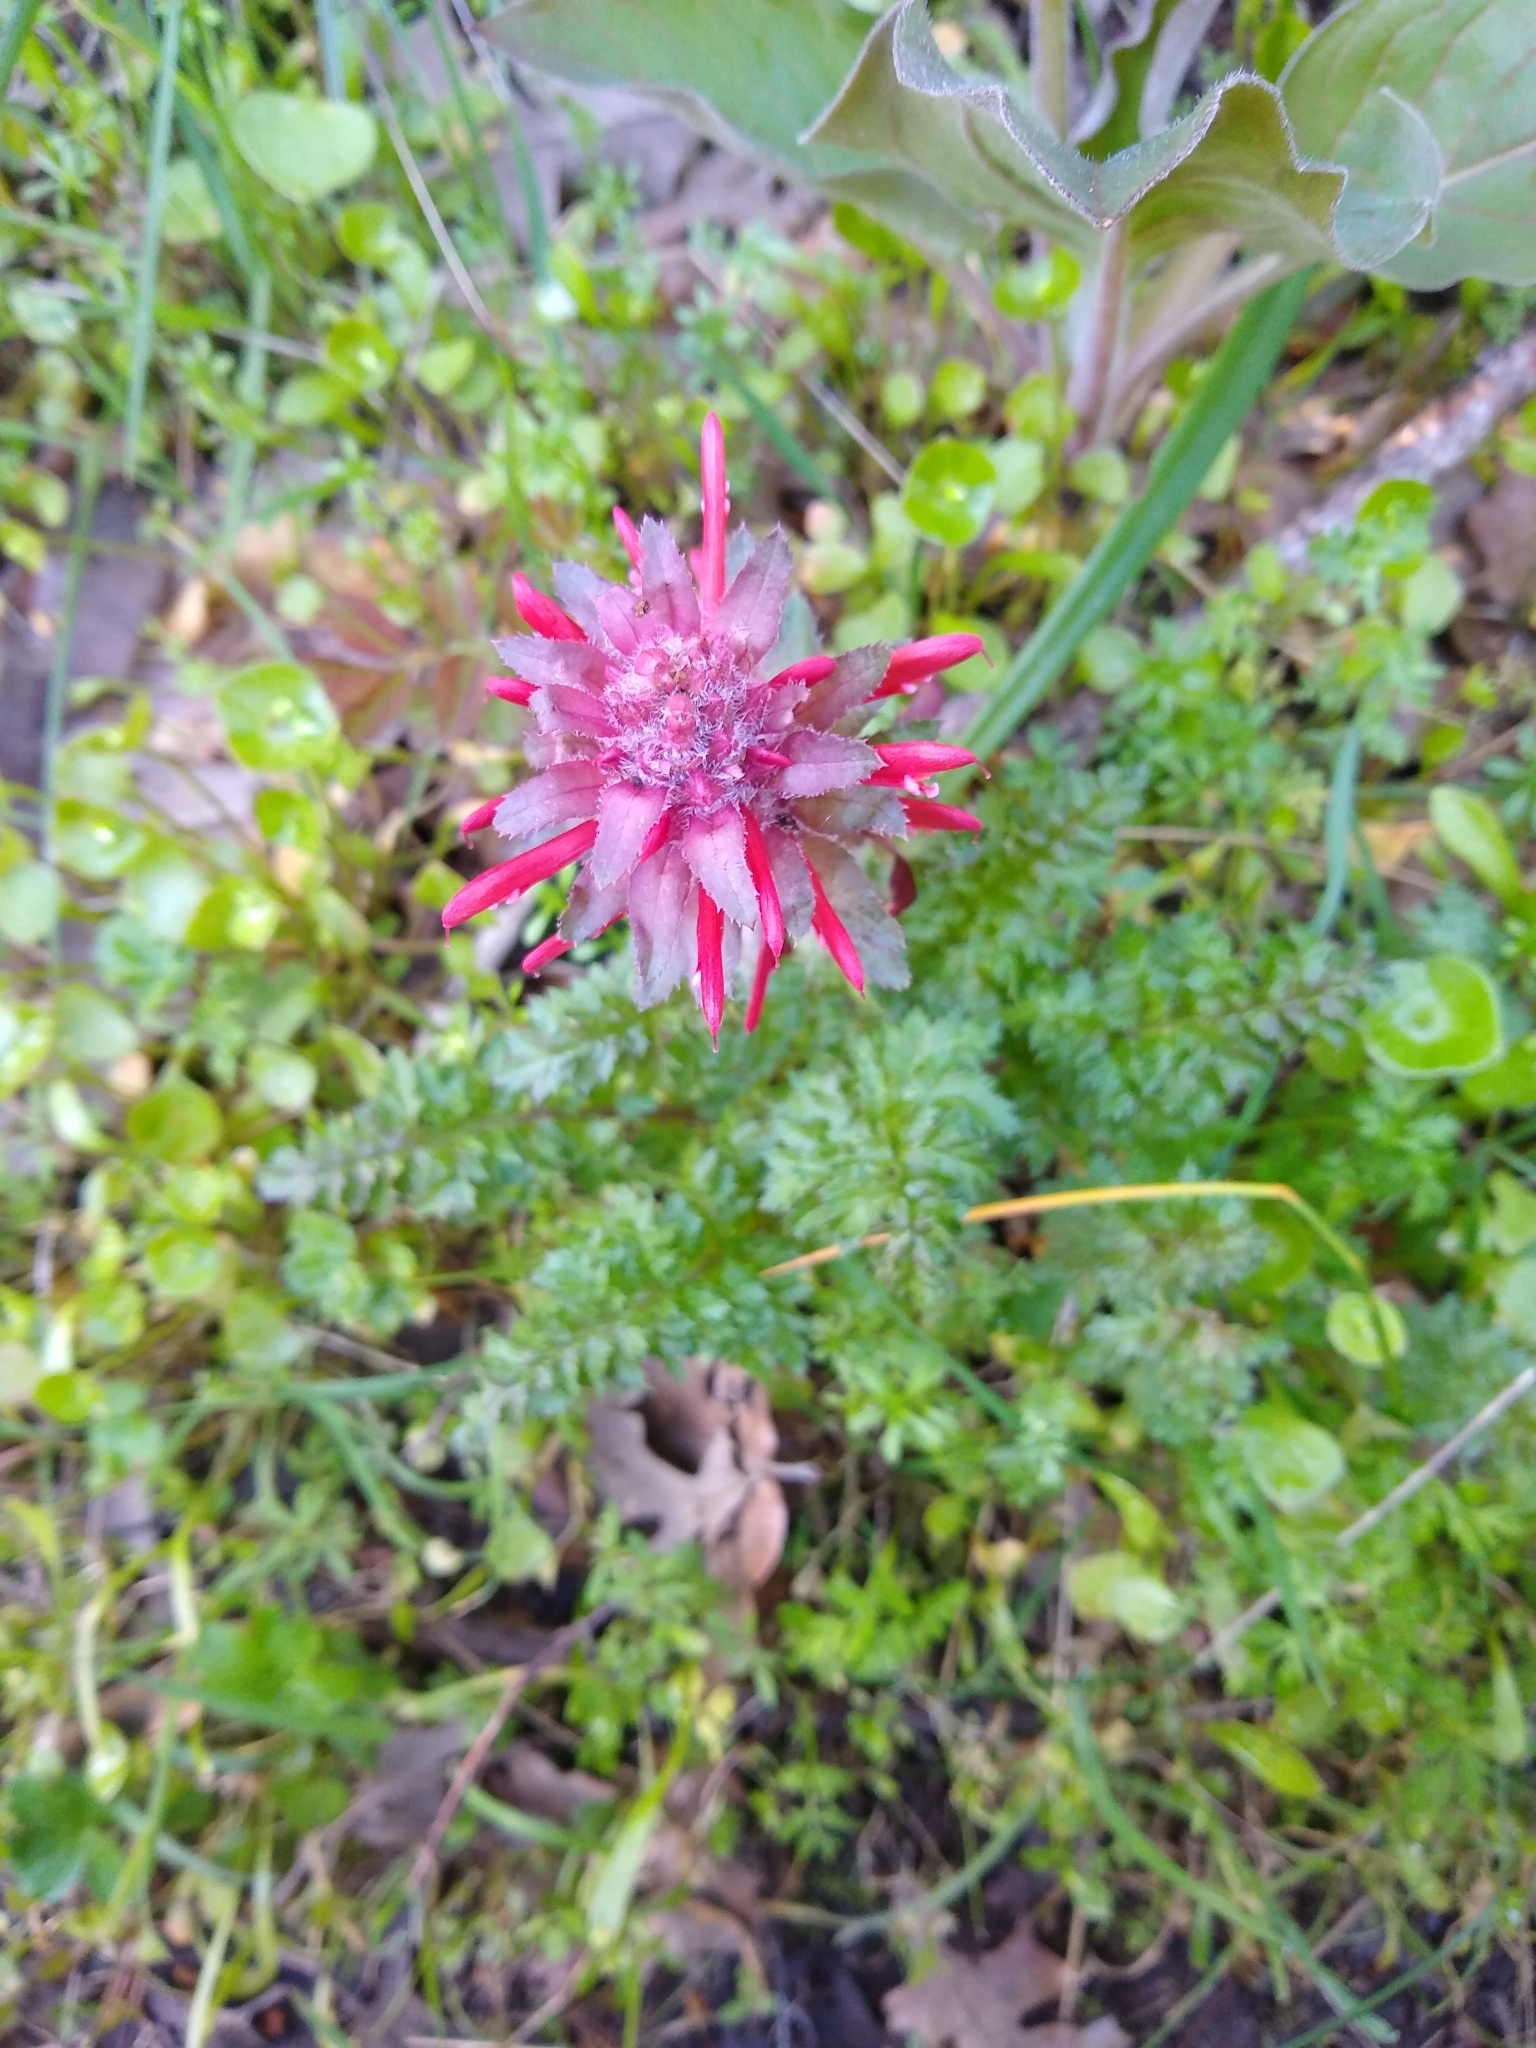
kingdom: Plantae
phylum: Tracheophyta
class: Magnoliopsida
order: Lamiales
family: Orobanchaceae
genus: Pedicularis
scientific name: Pedicularis densiflora
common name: Indian warrior
